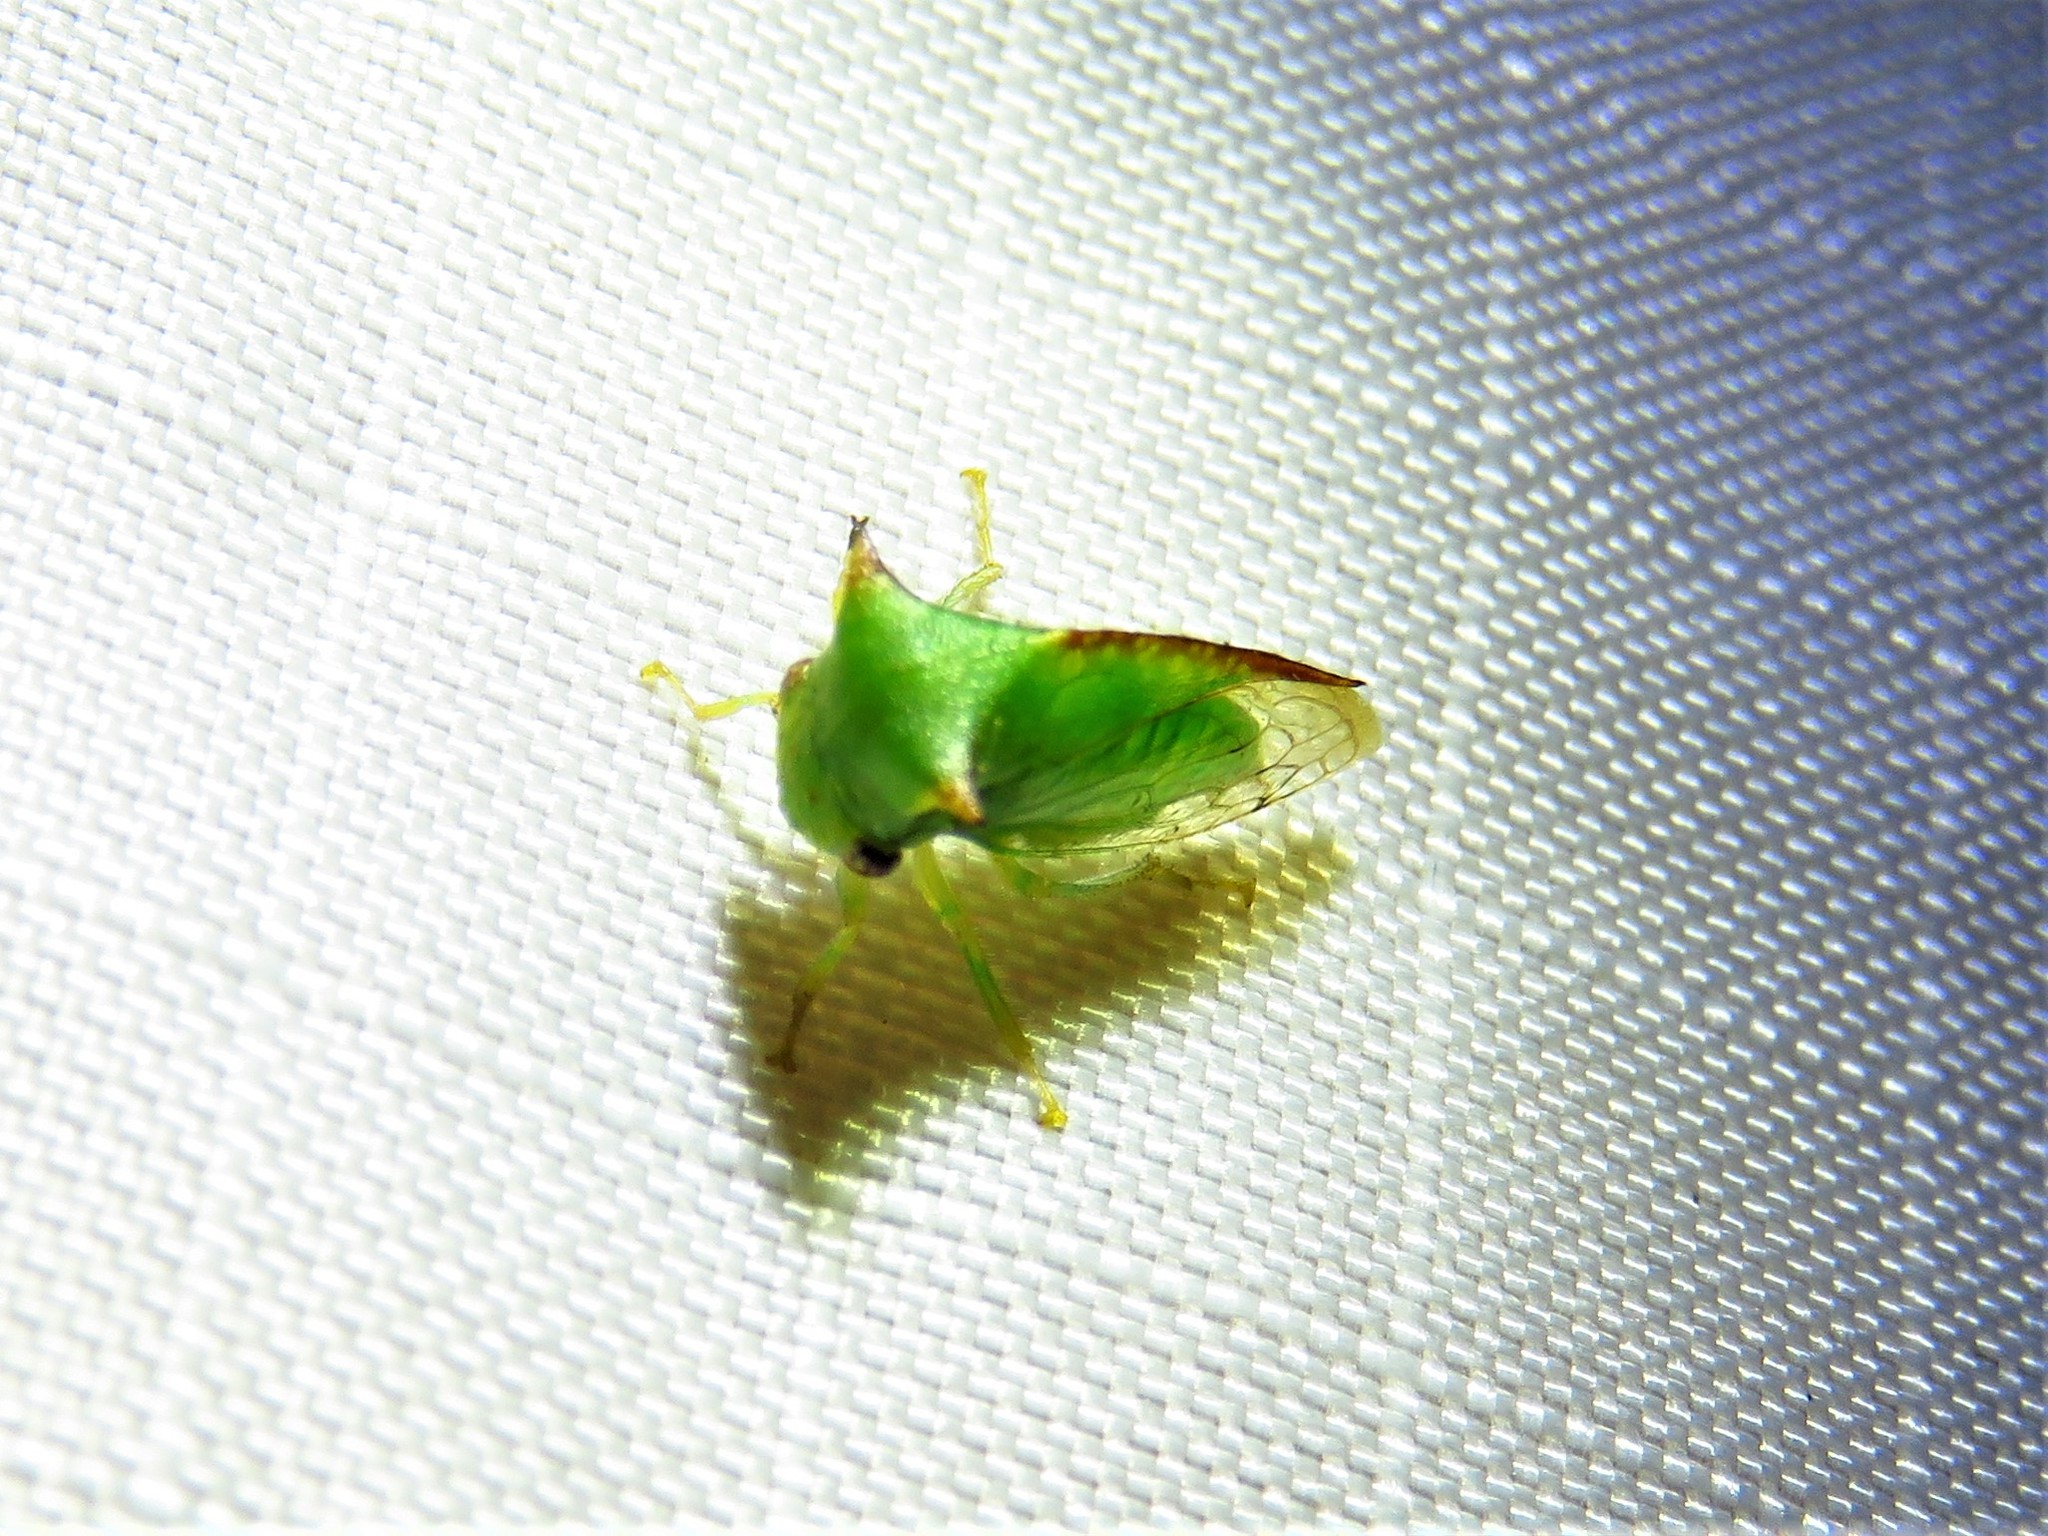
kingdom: Animalia
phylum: Arthropoda
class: Insecta
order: Hemiptera
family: Membracidae
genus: Stictocephala
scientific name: Stictocephala militaris
